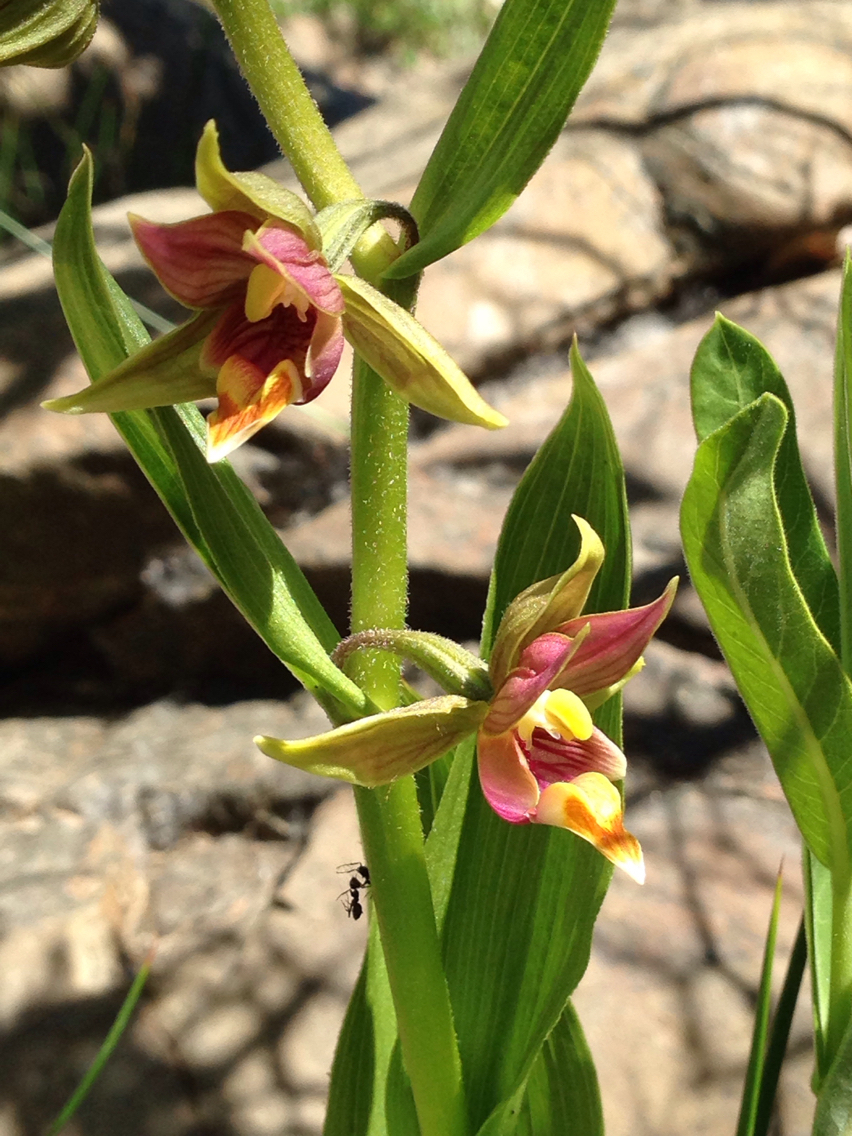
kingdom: Plantae
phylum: Tracheophyta
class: Liliopsida
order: Asparagales
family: Orchidaceae
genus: Epipactis
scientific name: Epipactis gigantea
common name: Chatterbox
